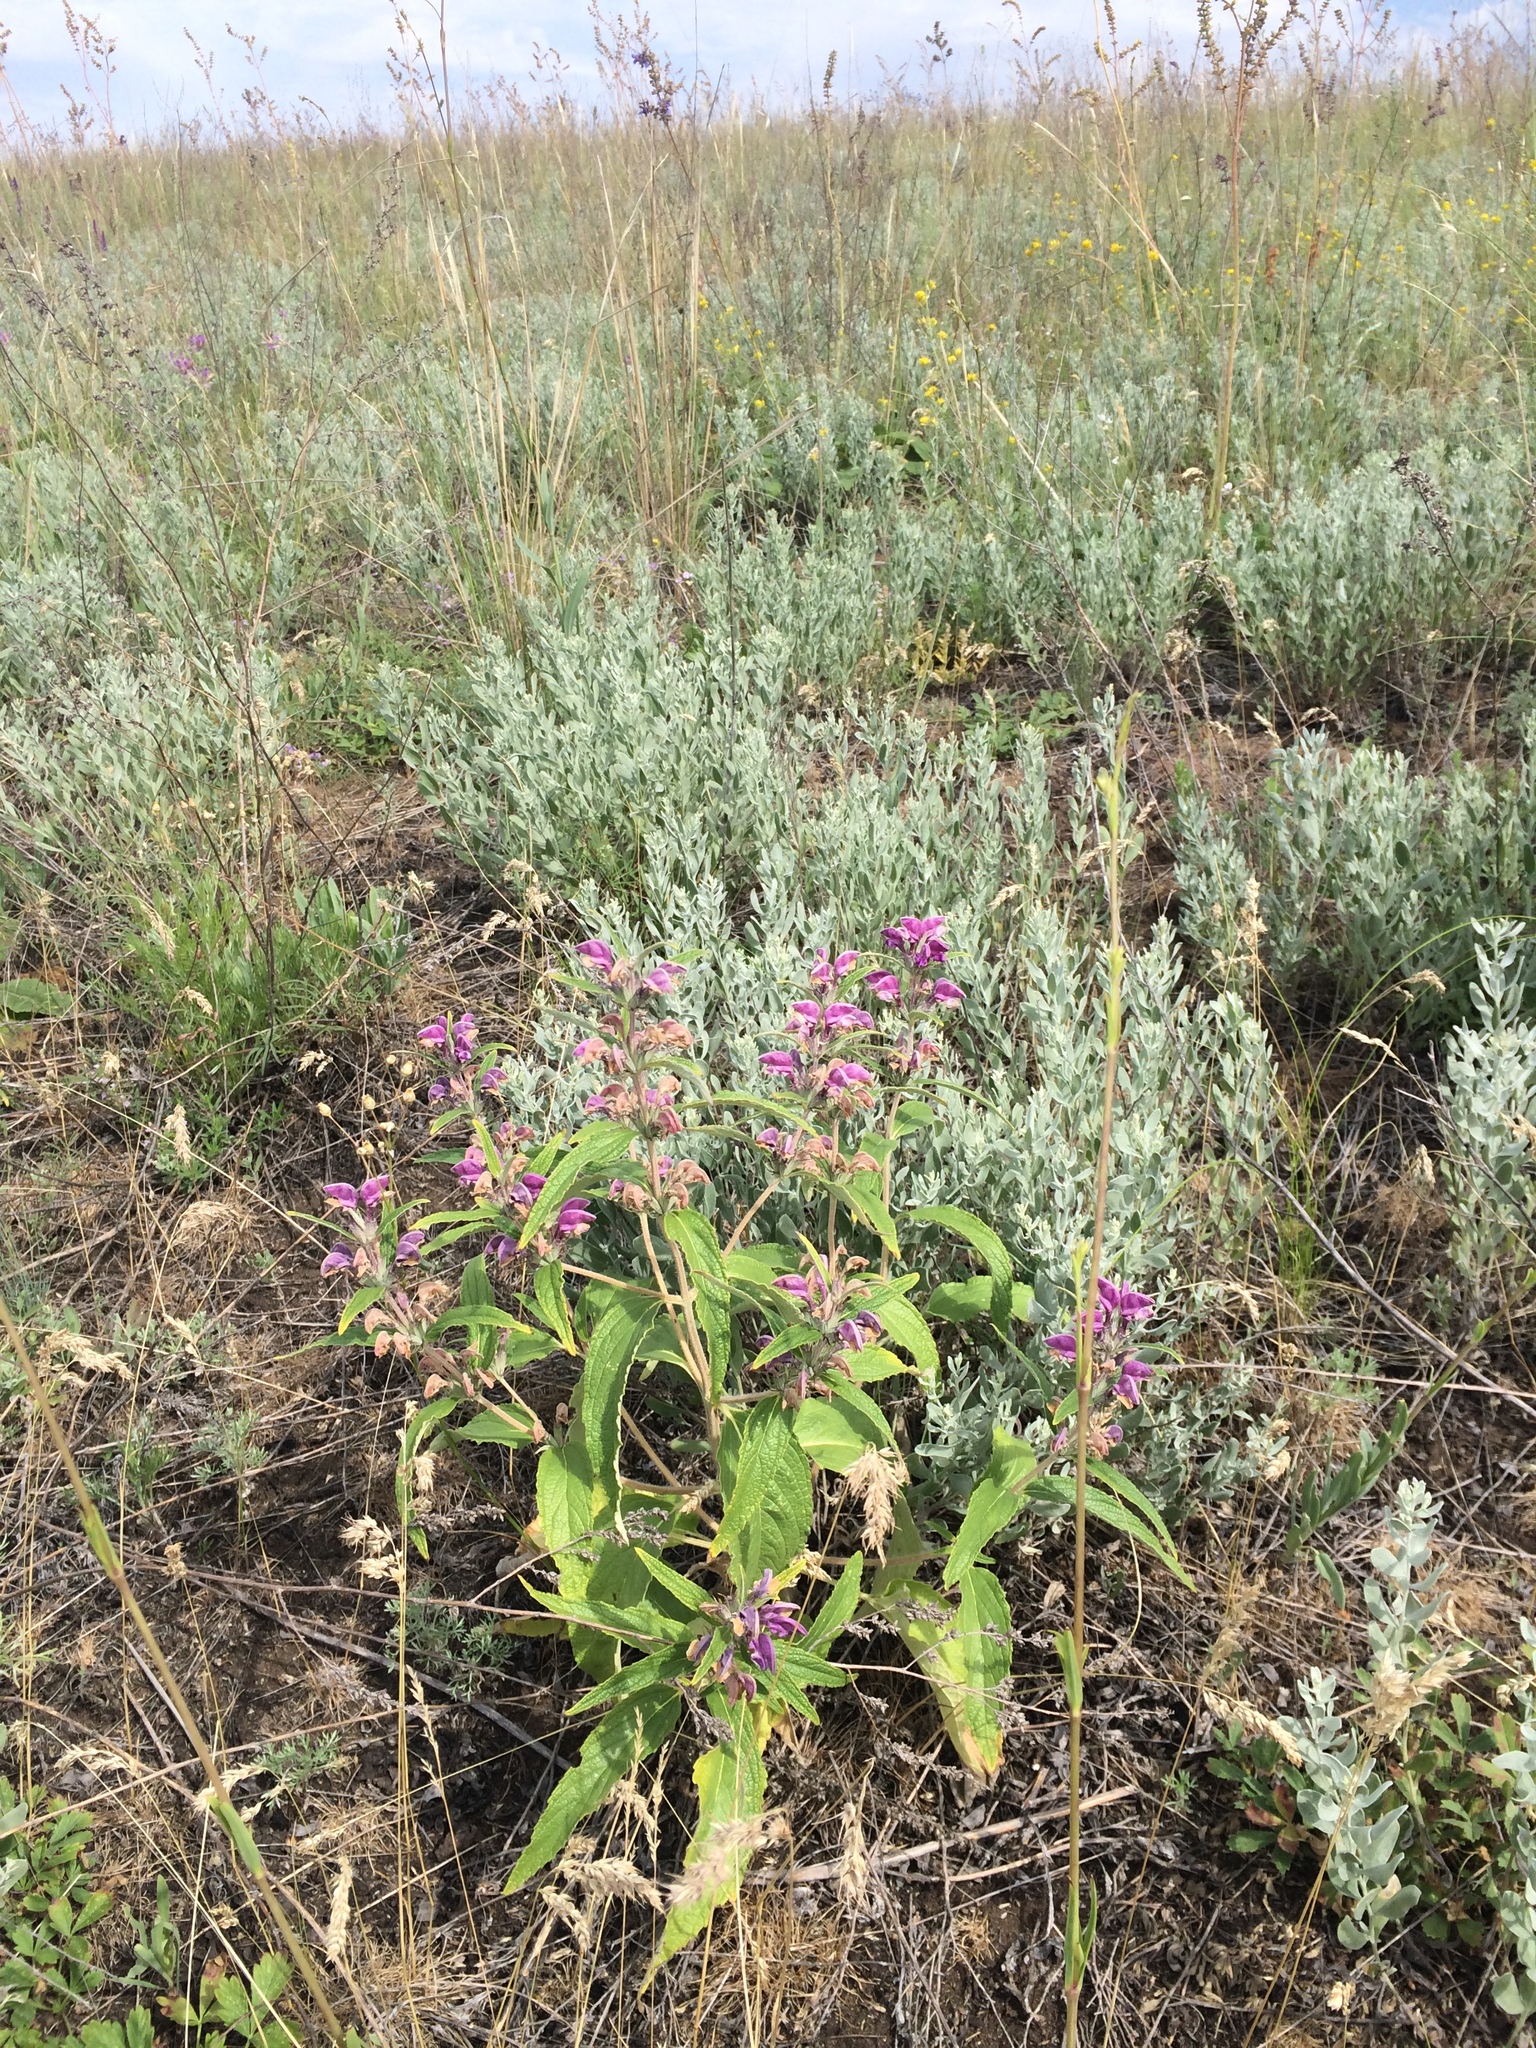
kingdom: Plantae
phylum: Tracheophyta
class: Magnoliopsida
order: Lamiales
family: Lamiaceae
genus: Phlomis
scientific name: Phlomis herba-venti
